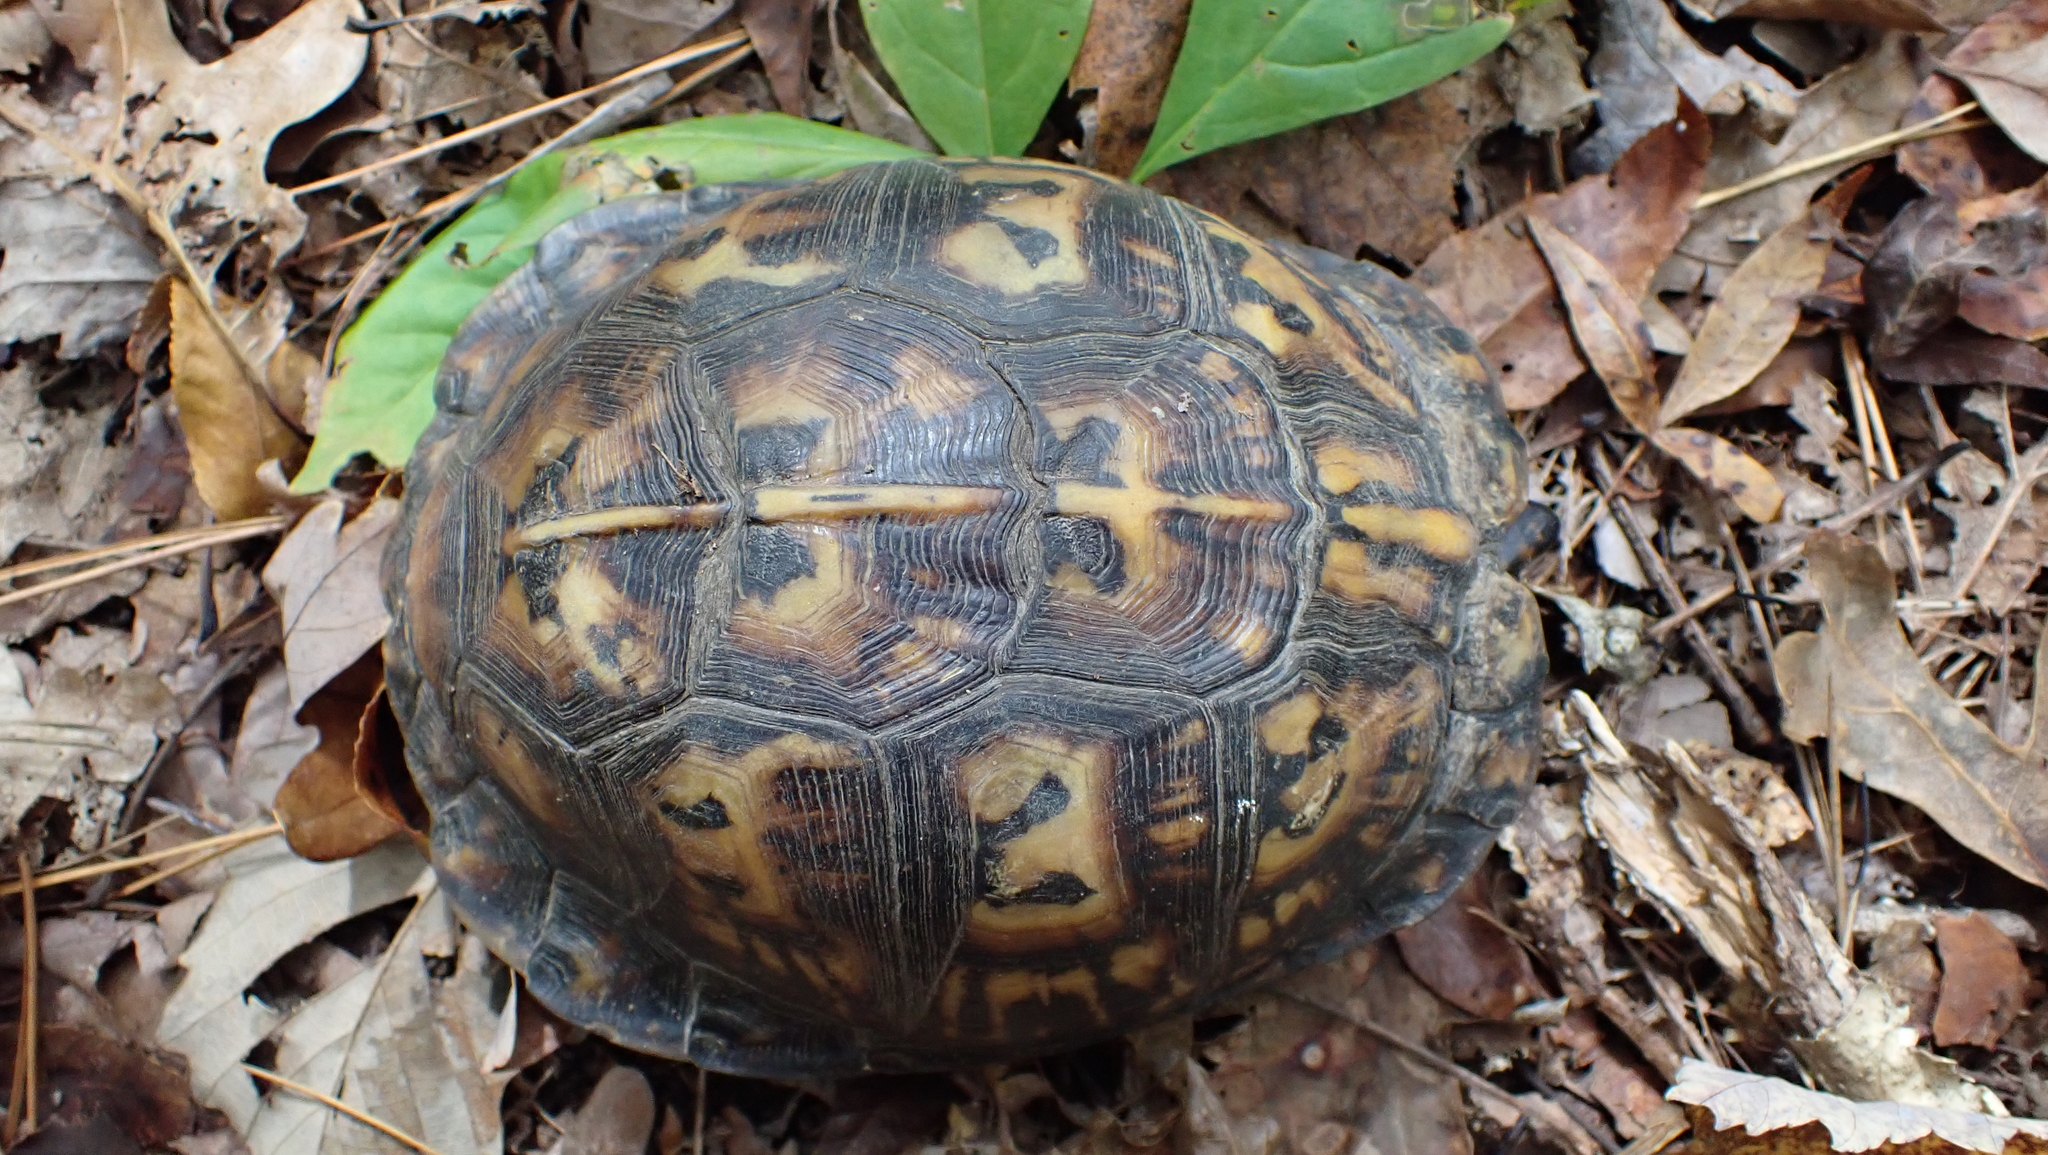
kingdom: Animalia
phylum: Chordata
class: Testudines
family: Emydidae
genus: Terrapene
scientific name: Terrapene carolina
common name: Common box turtle
